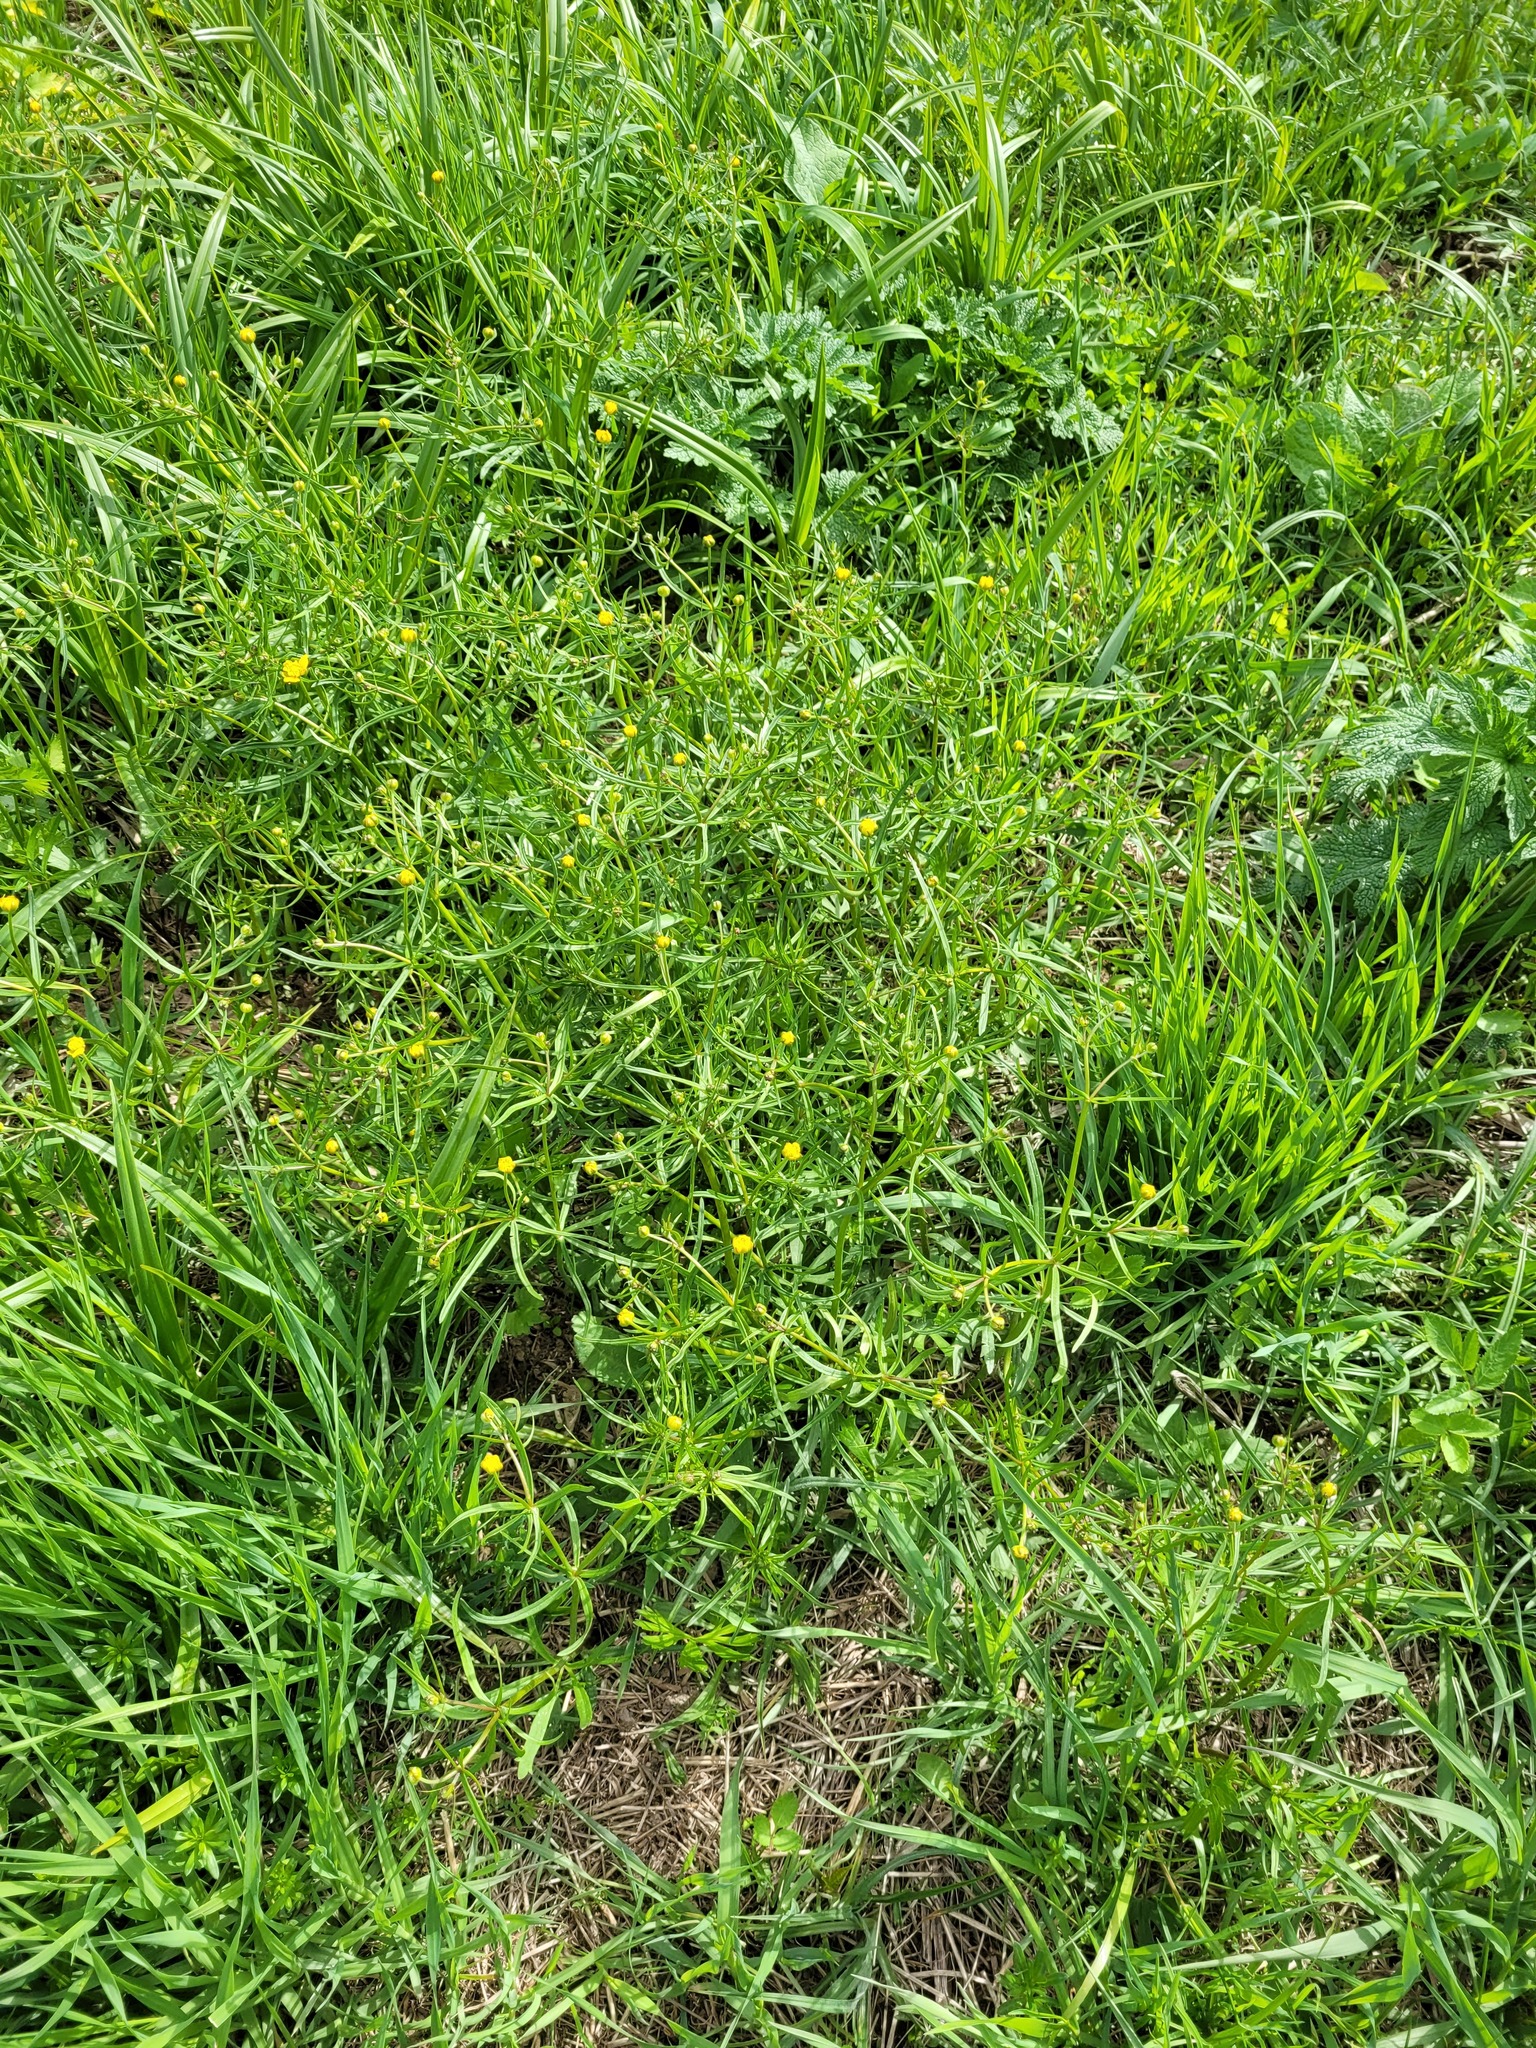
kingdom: Plantae
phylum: Tracheophyta
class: Magnoliopsida
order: Ranunculales
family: Ranunculaceae
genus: Ranunculus
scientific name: Ranunculus auricomus
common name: Goldilocks buttercup
